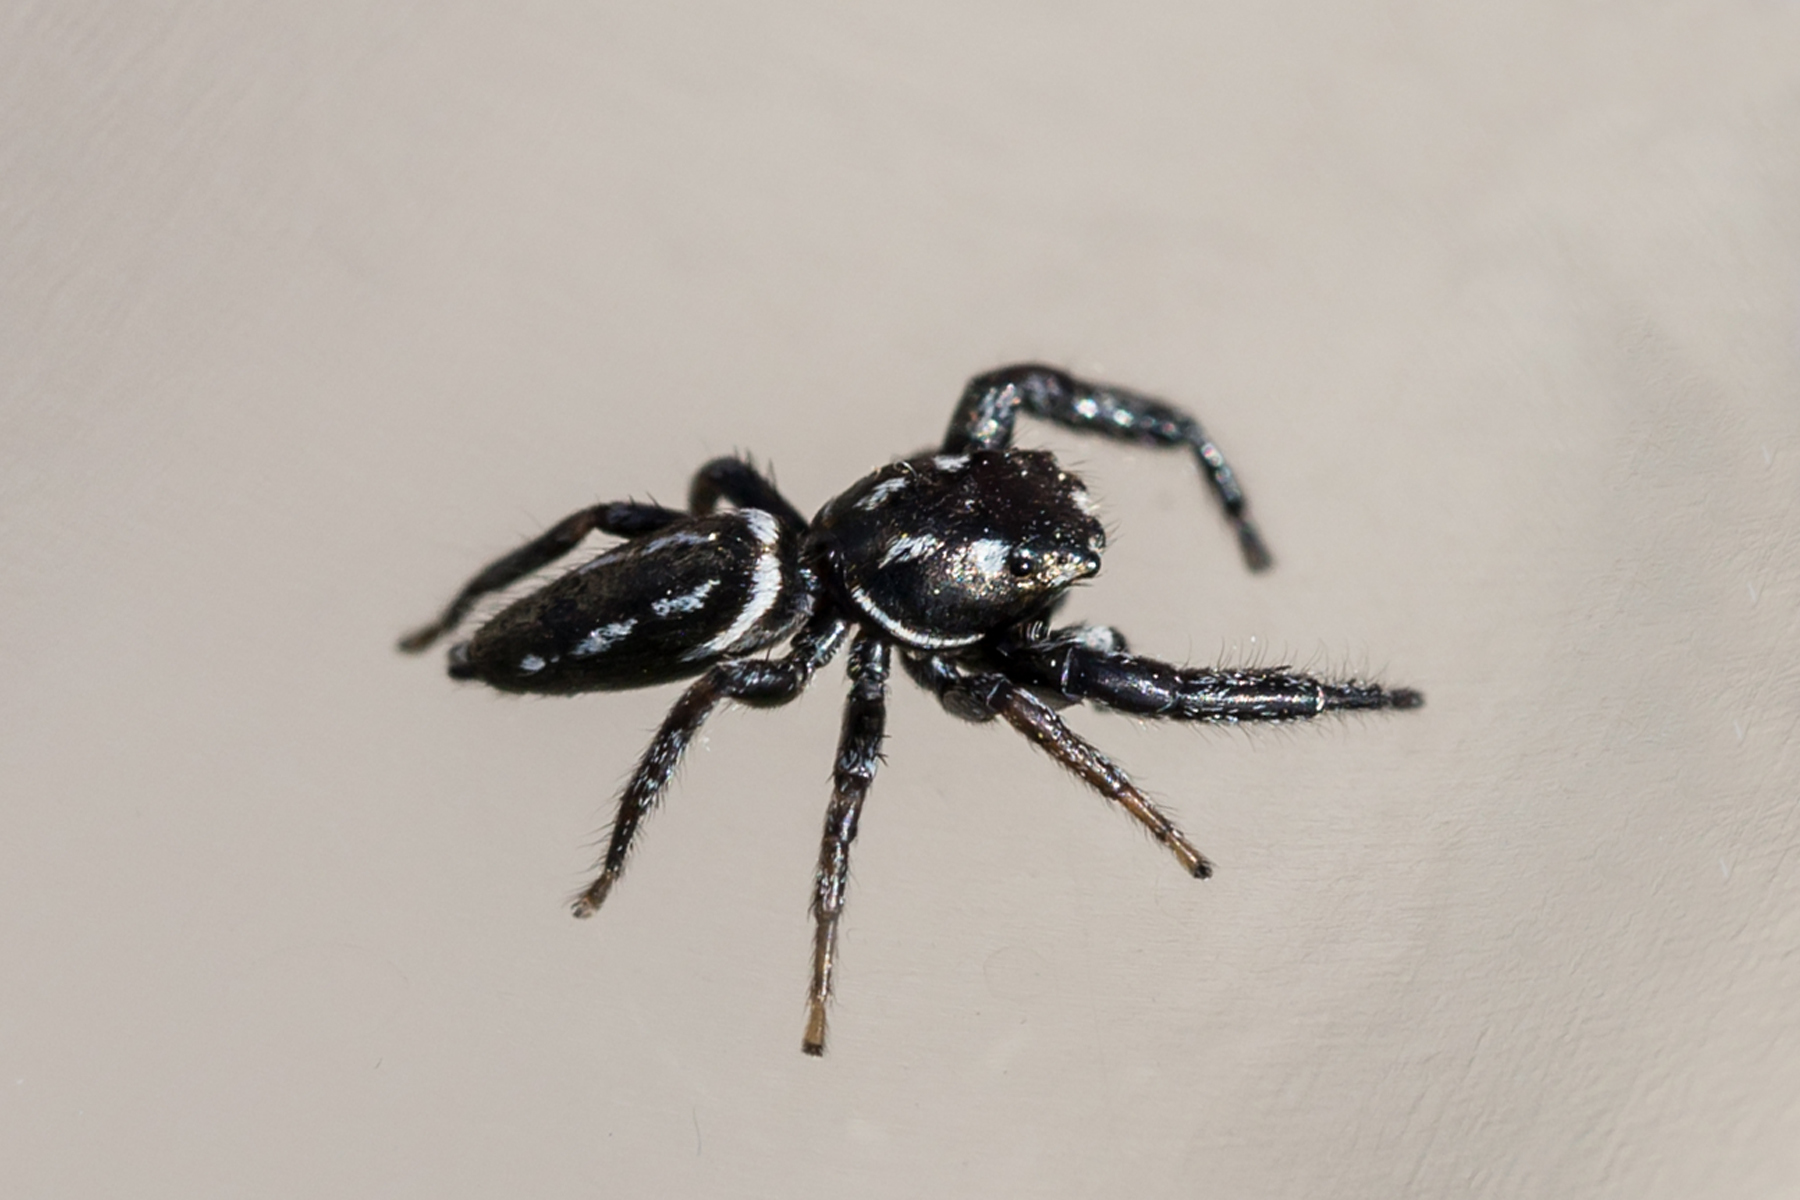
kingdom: Animalia
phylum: Arthropoda
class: Arachnida
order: Araneae
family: Salticidae
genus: Marpissa
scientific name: Marpissa formosa
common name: Short-bellied slender jumping spider
